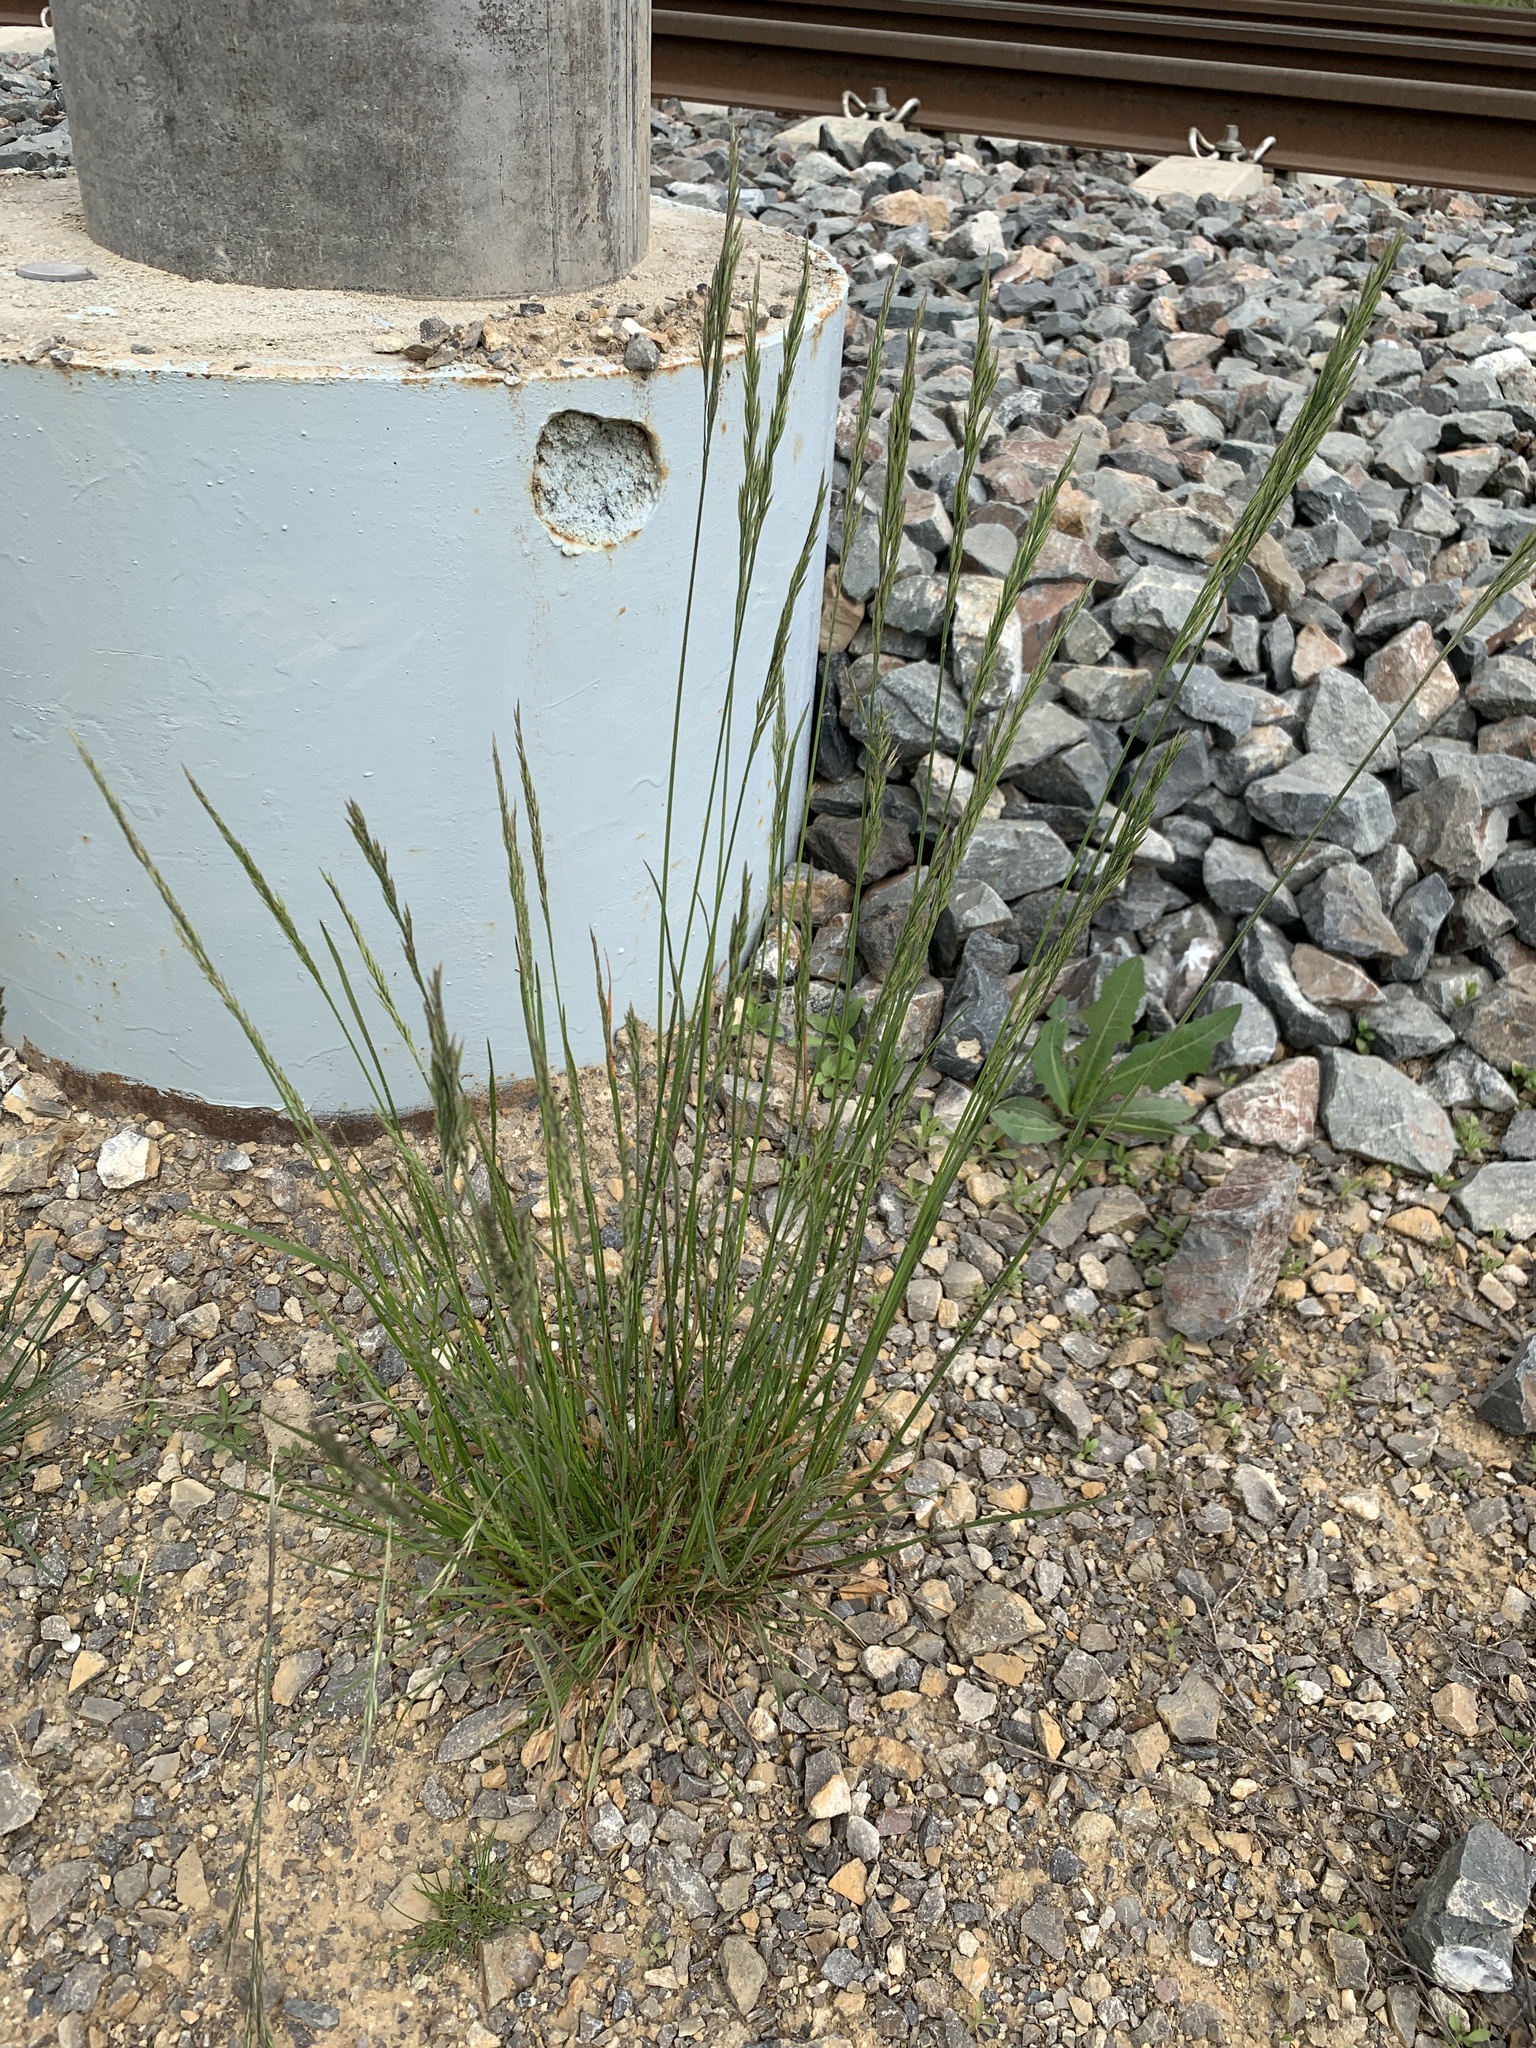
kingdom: Plantae
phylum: Tracheophyta
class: Liliopsida
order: Poales
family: Poaceae
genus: Lolium
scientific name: Lolium arundinaceum
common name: Reed fescue
